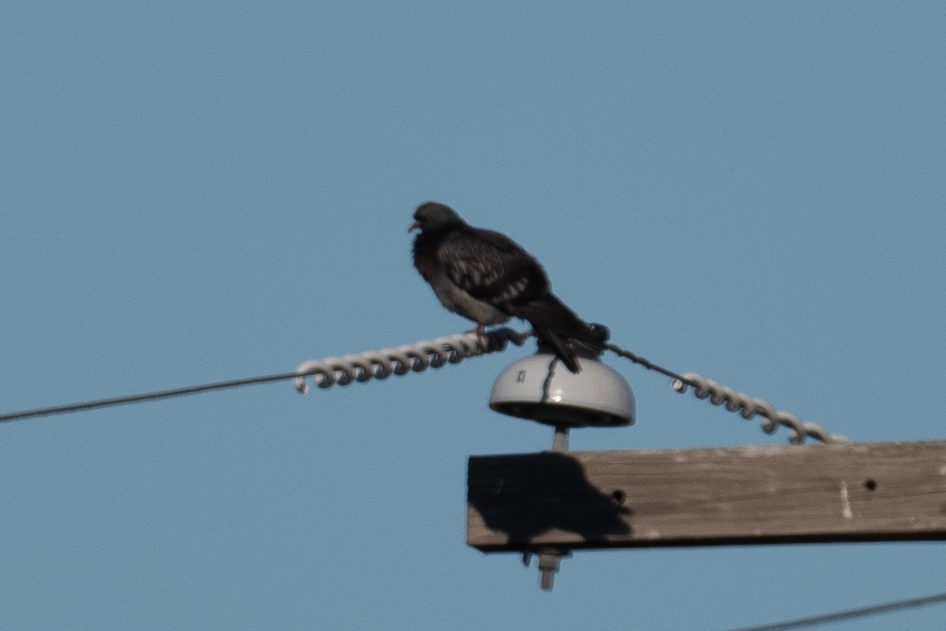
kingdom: Animalia
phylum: Chordata
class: Aves
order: Columbiformes
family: Columbidae
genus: Columba
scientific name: Columba livia
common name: Rock pigeon
